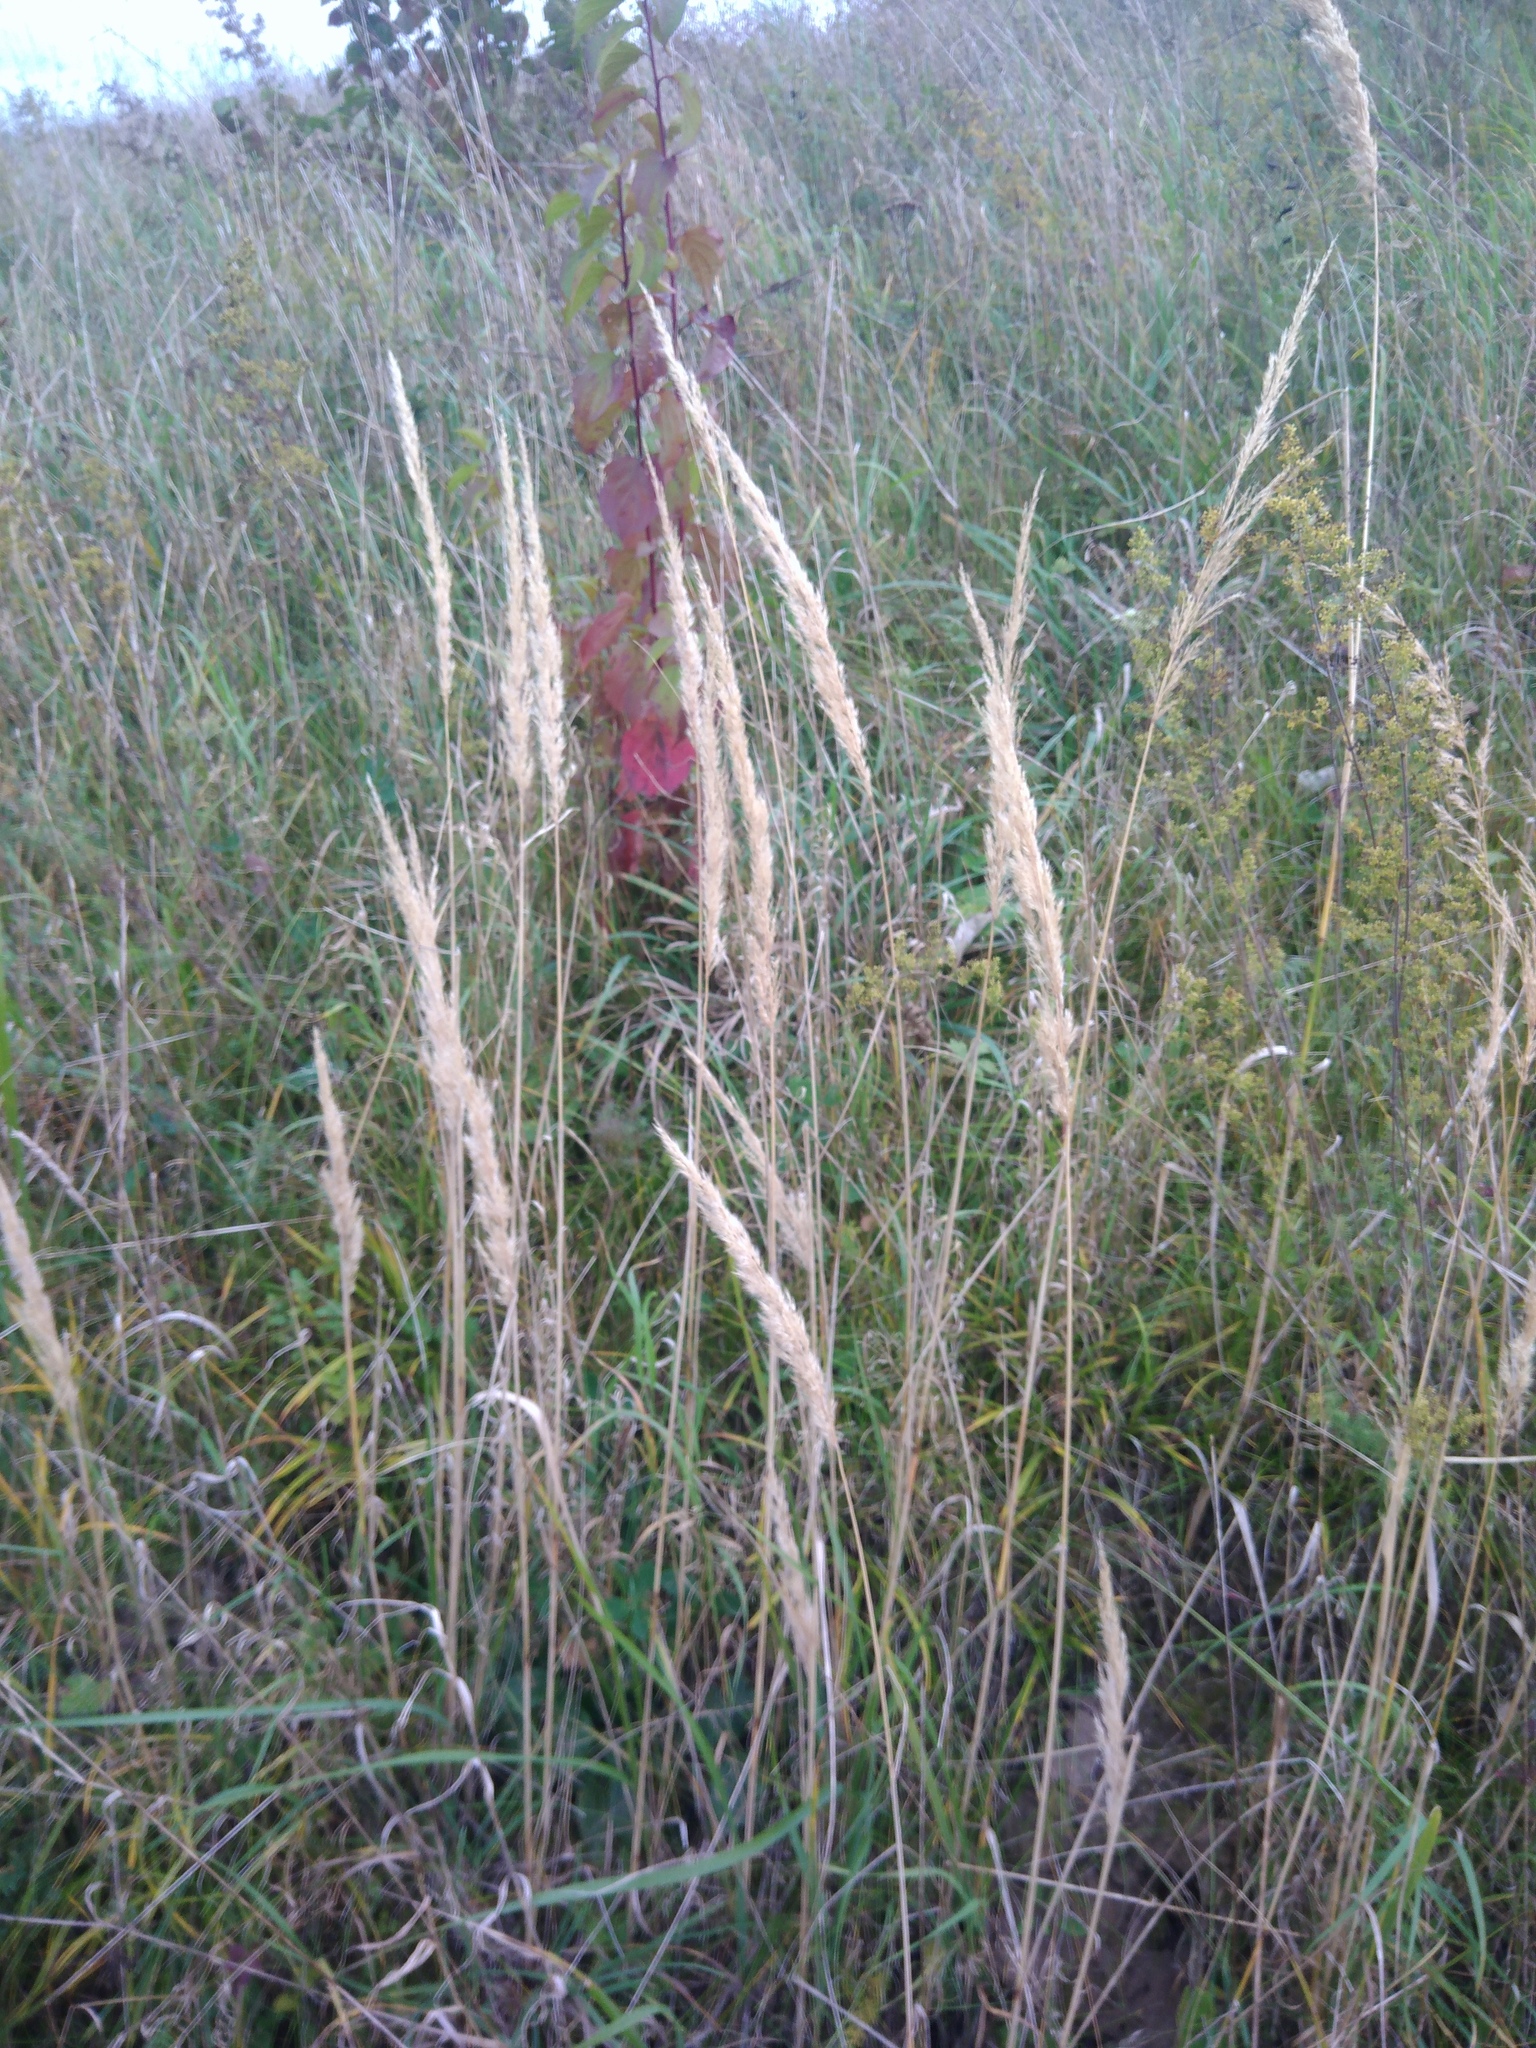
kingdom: Plantae
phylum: Tracheophyta
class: Liliopsida
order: Poales
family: Poaceae
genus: Calamagrostis
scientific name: Calamagrostis epigejos
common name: Wood small-reed
